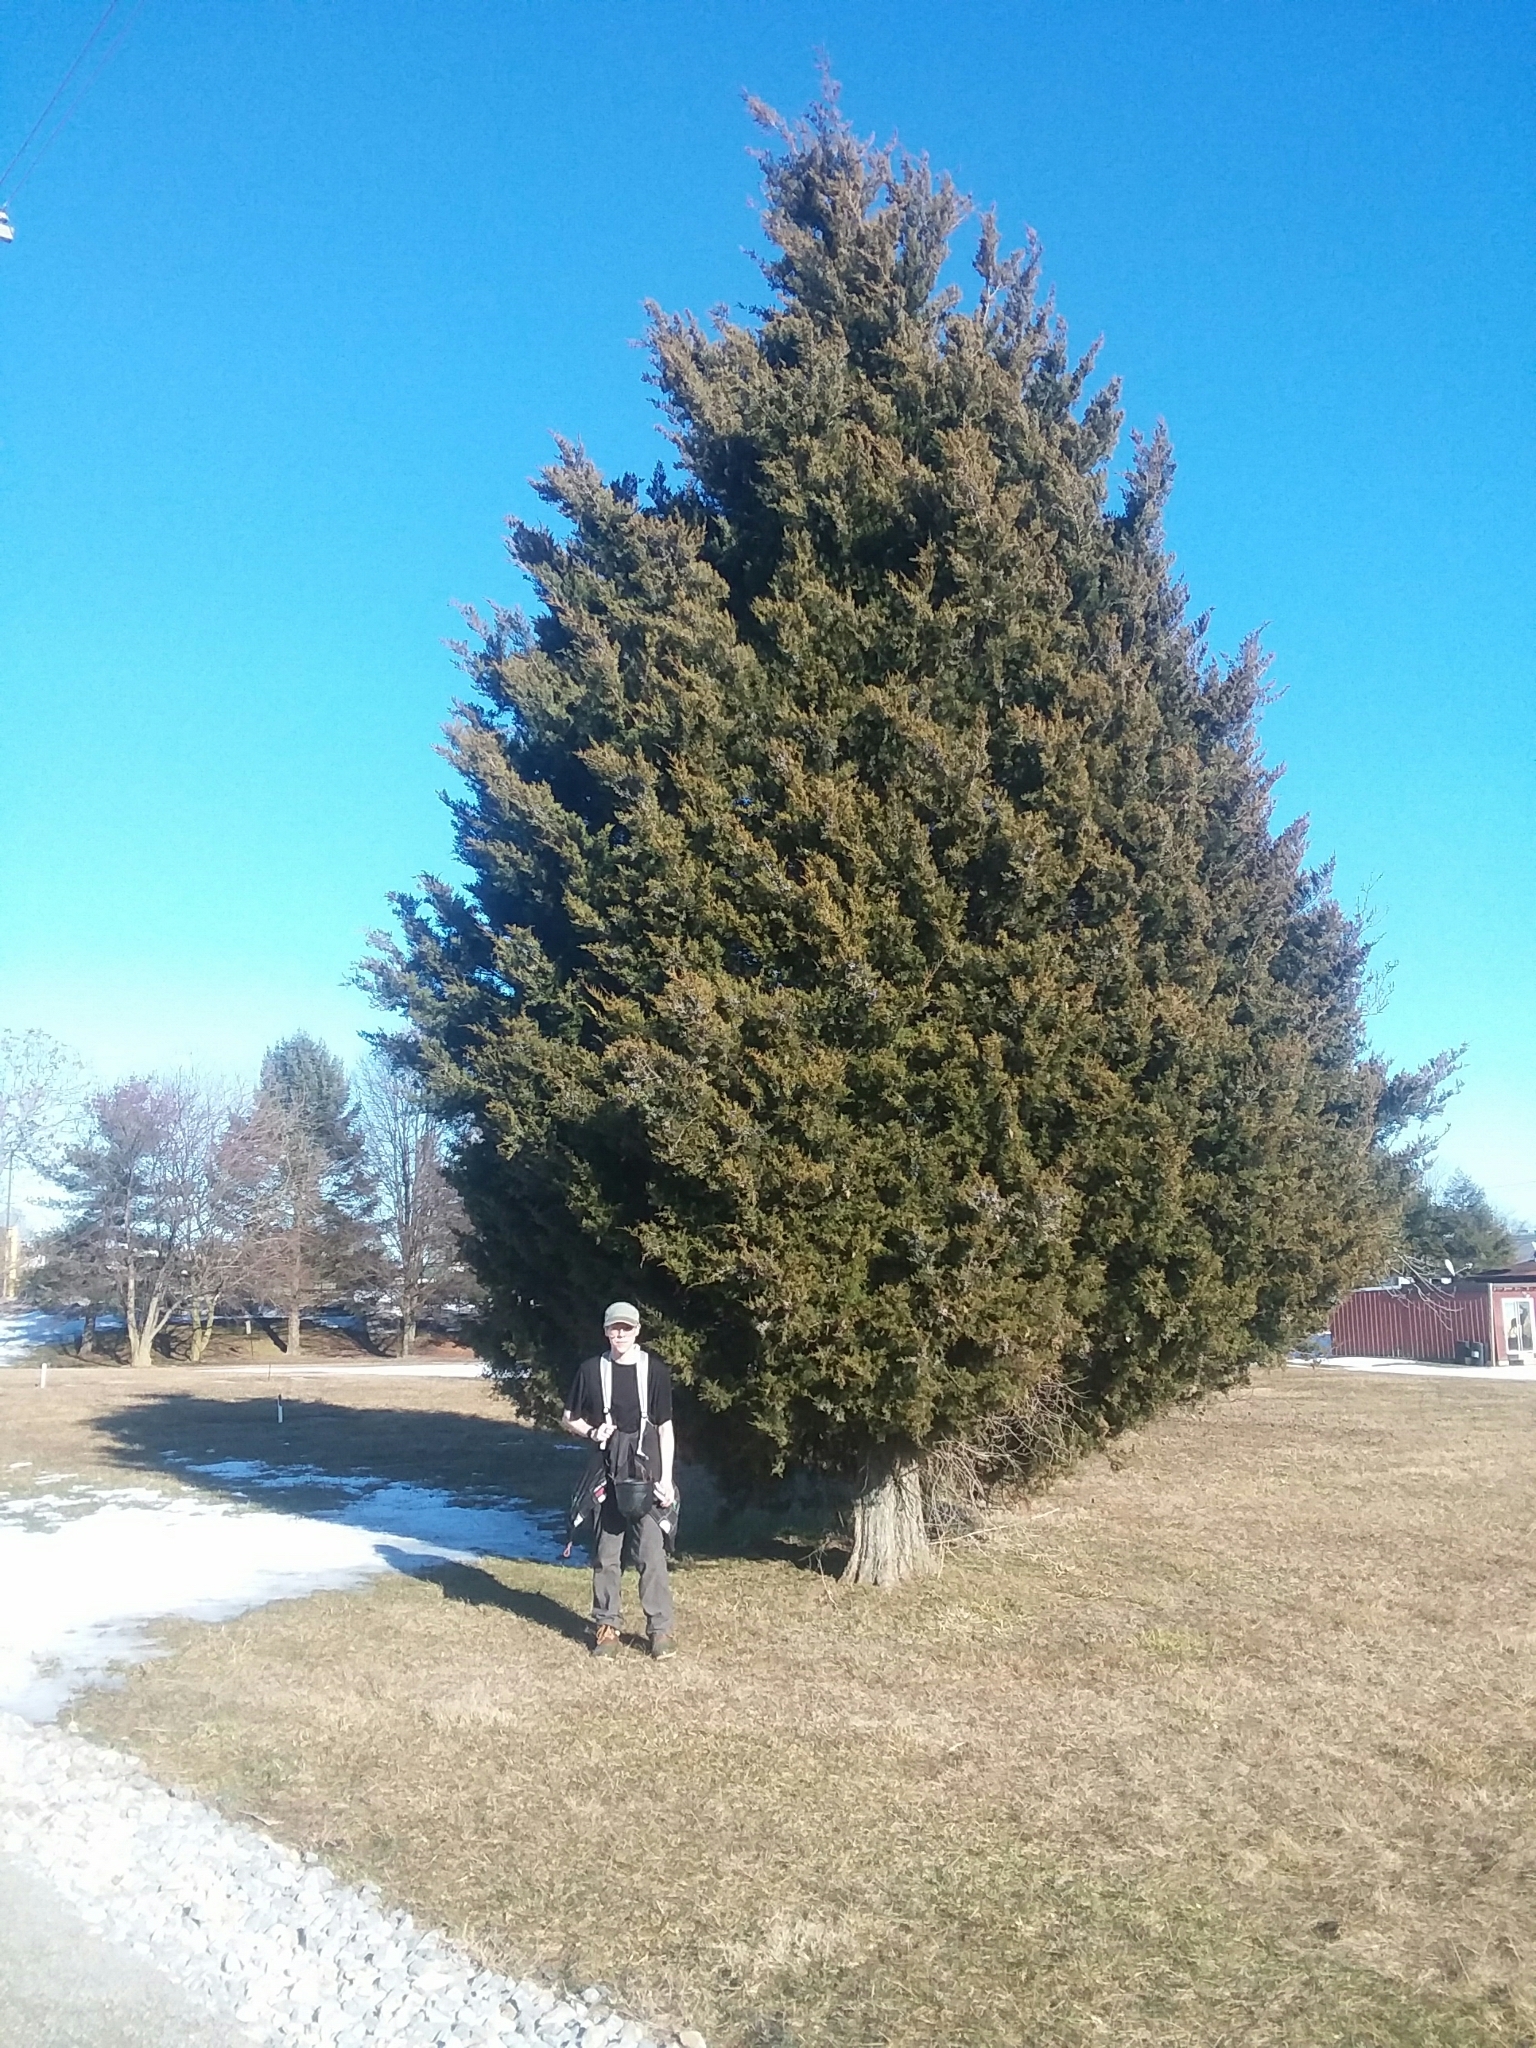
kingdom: Plantae
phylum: Tracheophyta
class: Pinopsida
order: Pinales
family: Cupressaceae
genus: Juniperus
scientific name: Juniperus virginiana
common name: Red juniper
